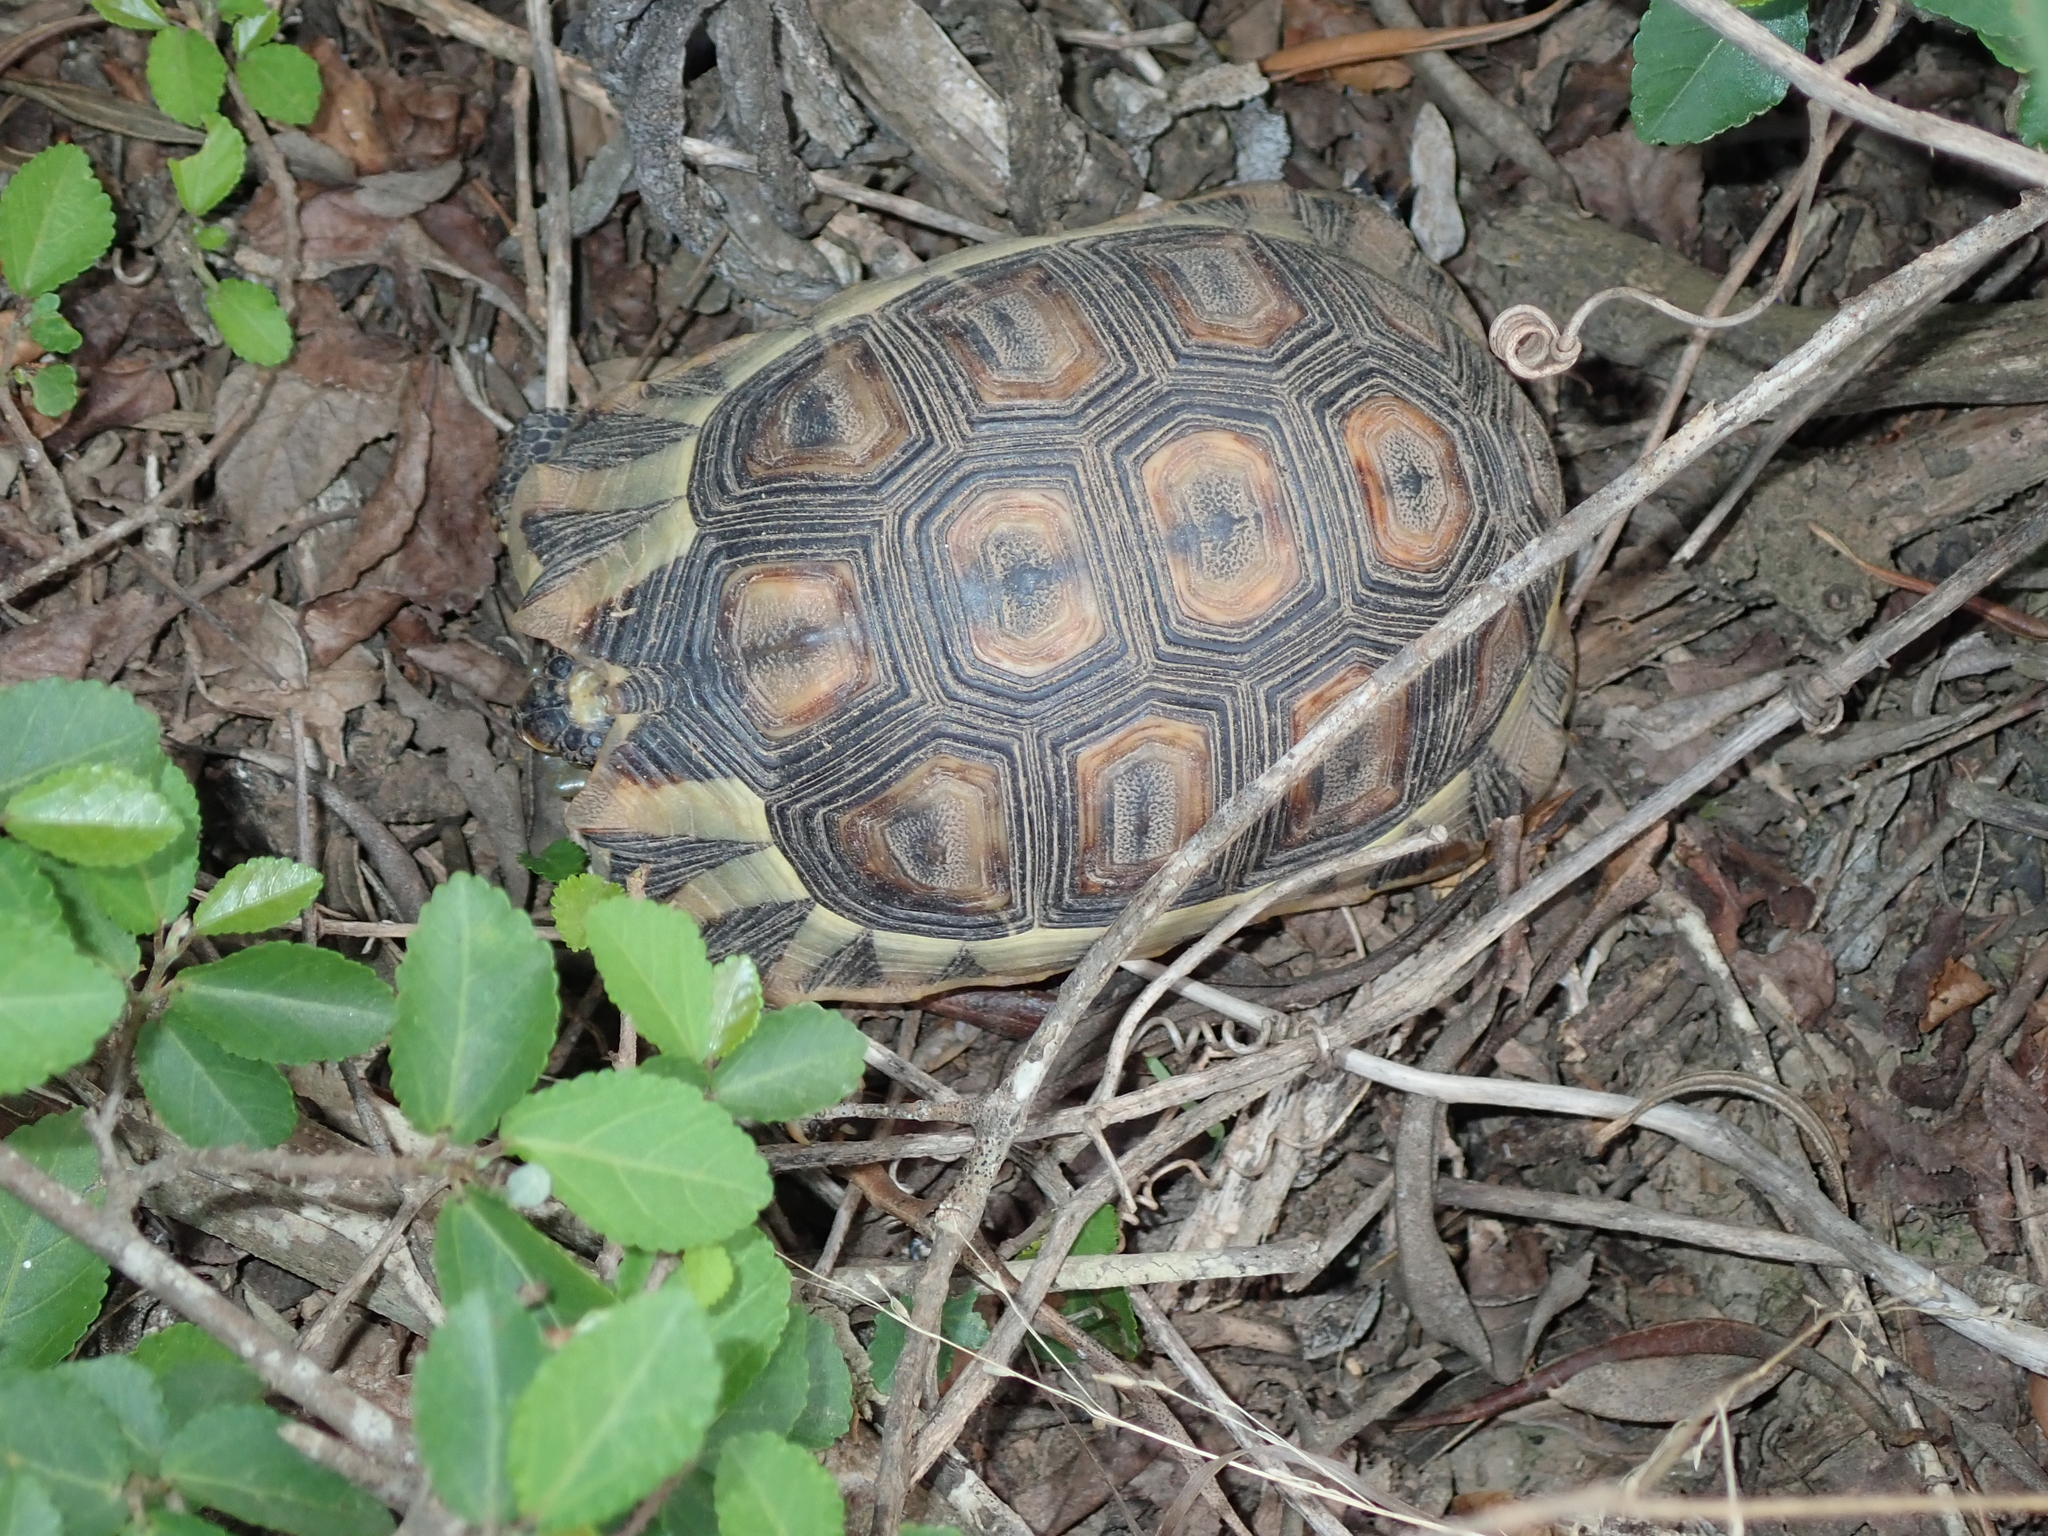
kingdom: Animalia
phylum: Chordata
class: Testudines
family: Testudinidae
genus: Chersina
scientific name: Chersina angulata
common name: South african bowsprit tortoise
